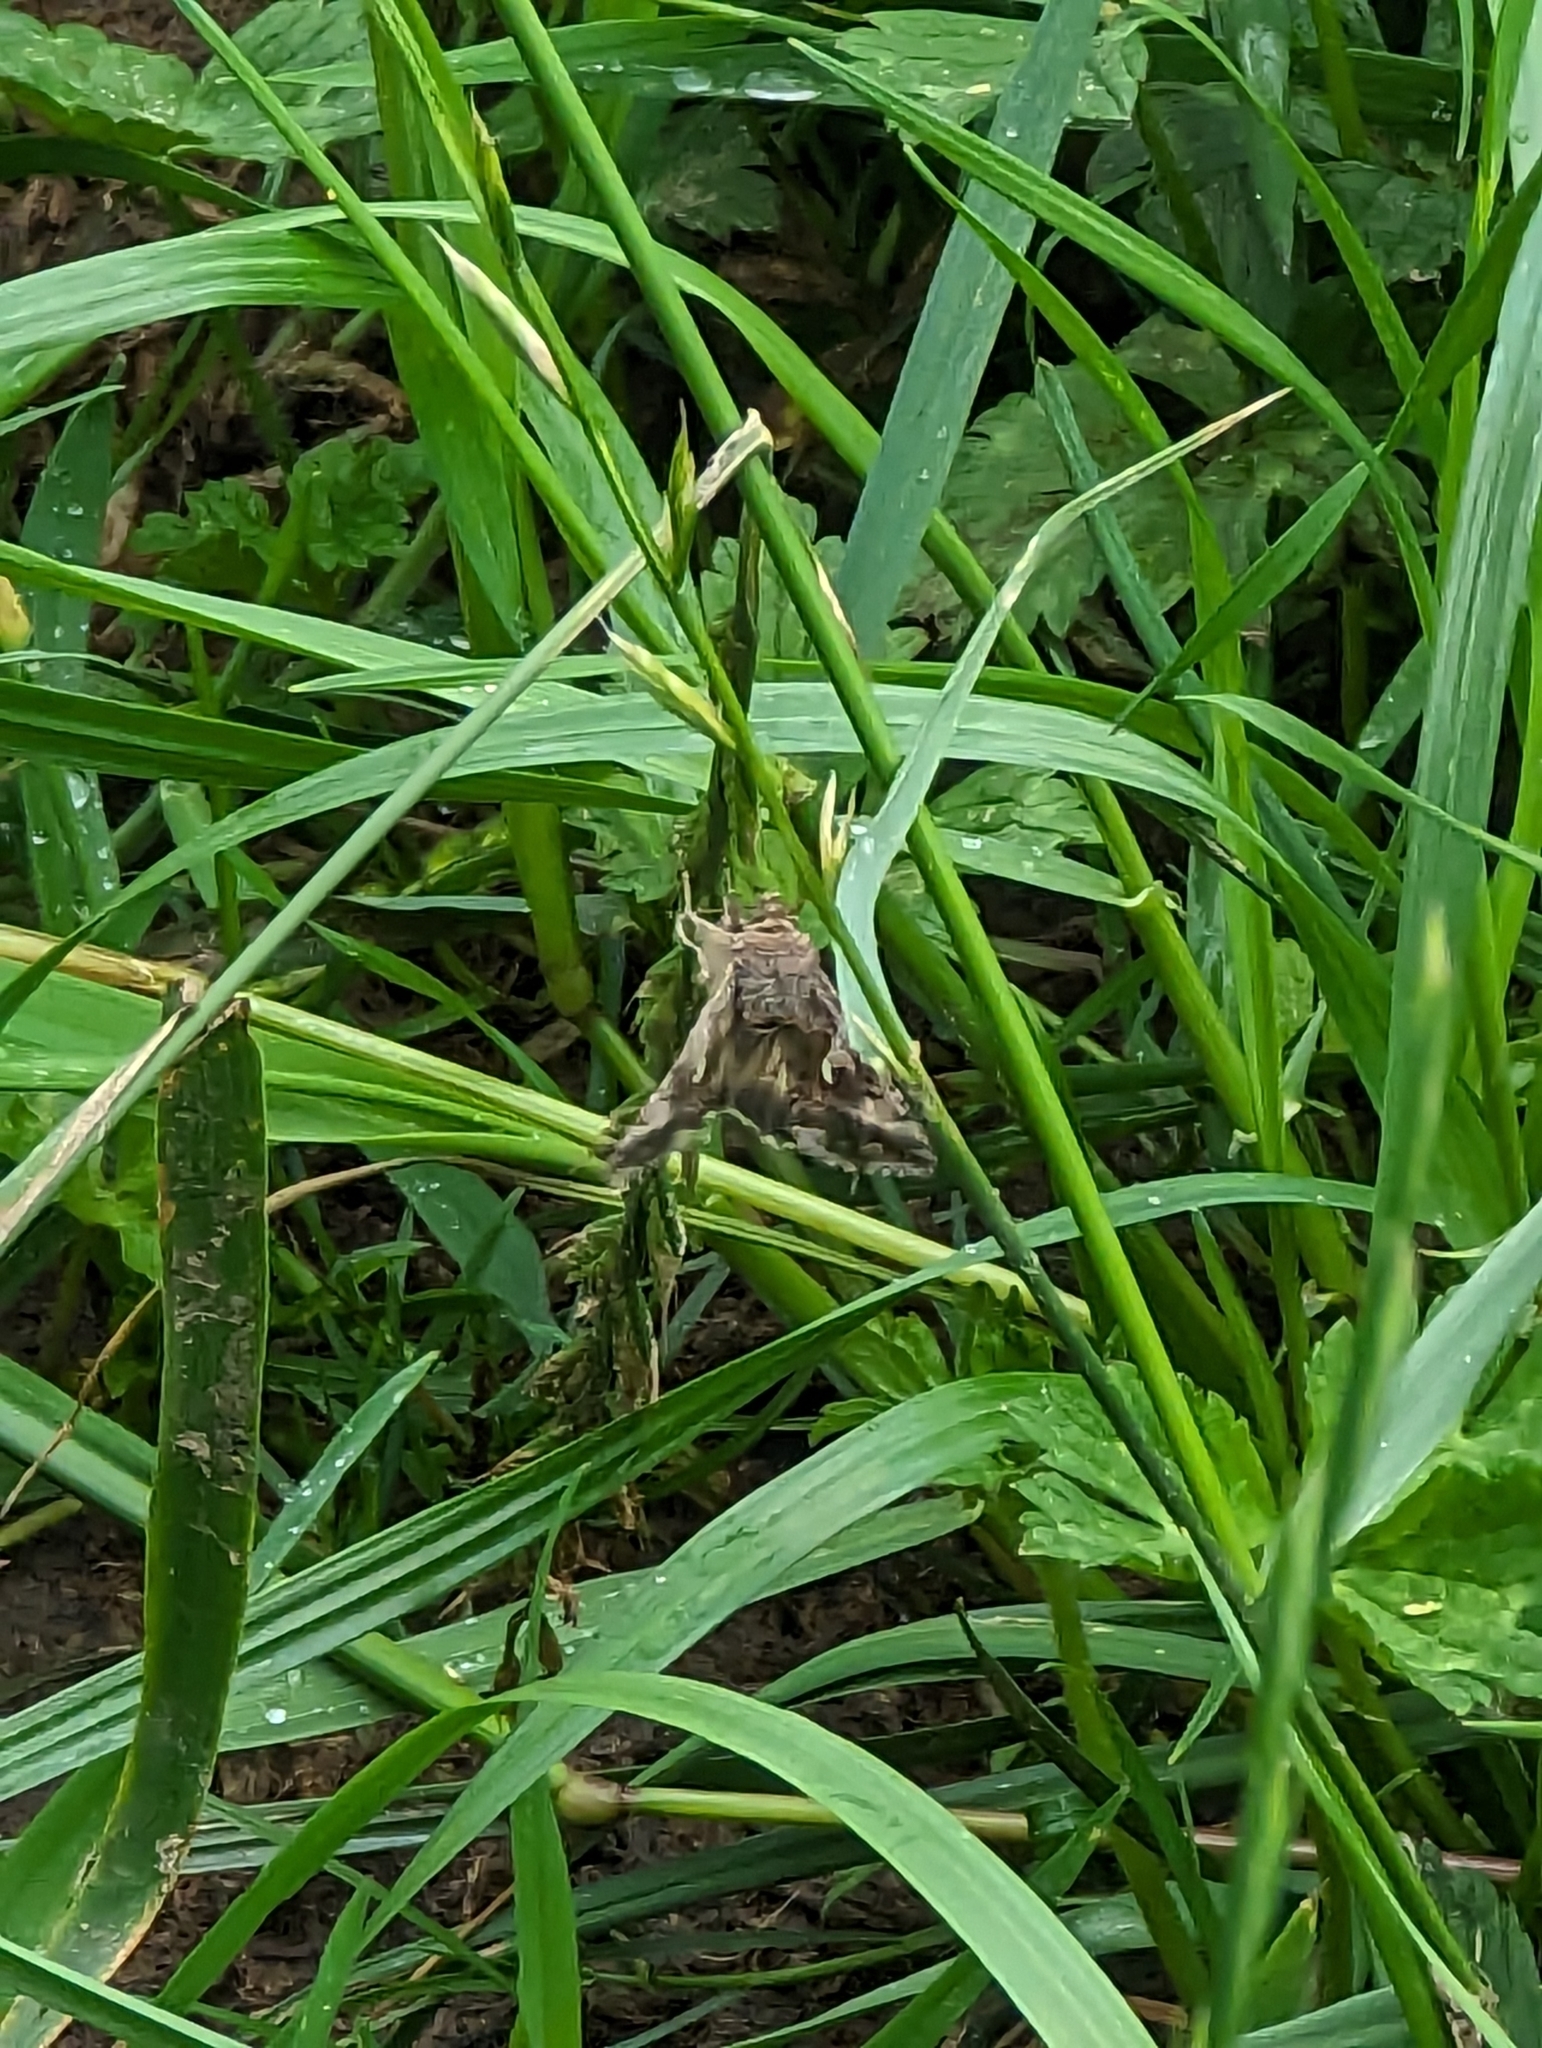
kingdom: Animalia
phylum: Arthropoda
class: Insecta
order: Lepidoptera
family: Noctuidae
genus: Autographa
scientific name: Autographa gamma
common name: Silver y
